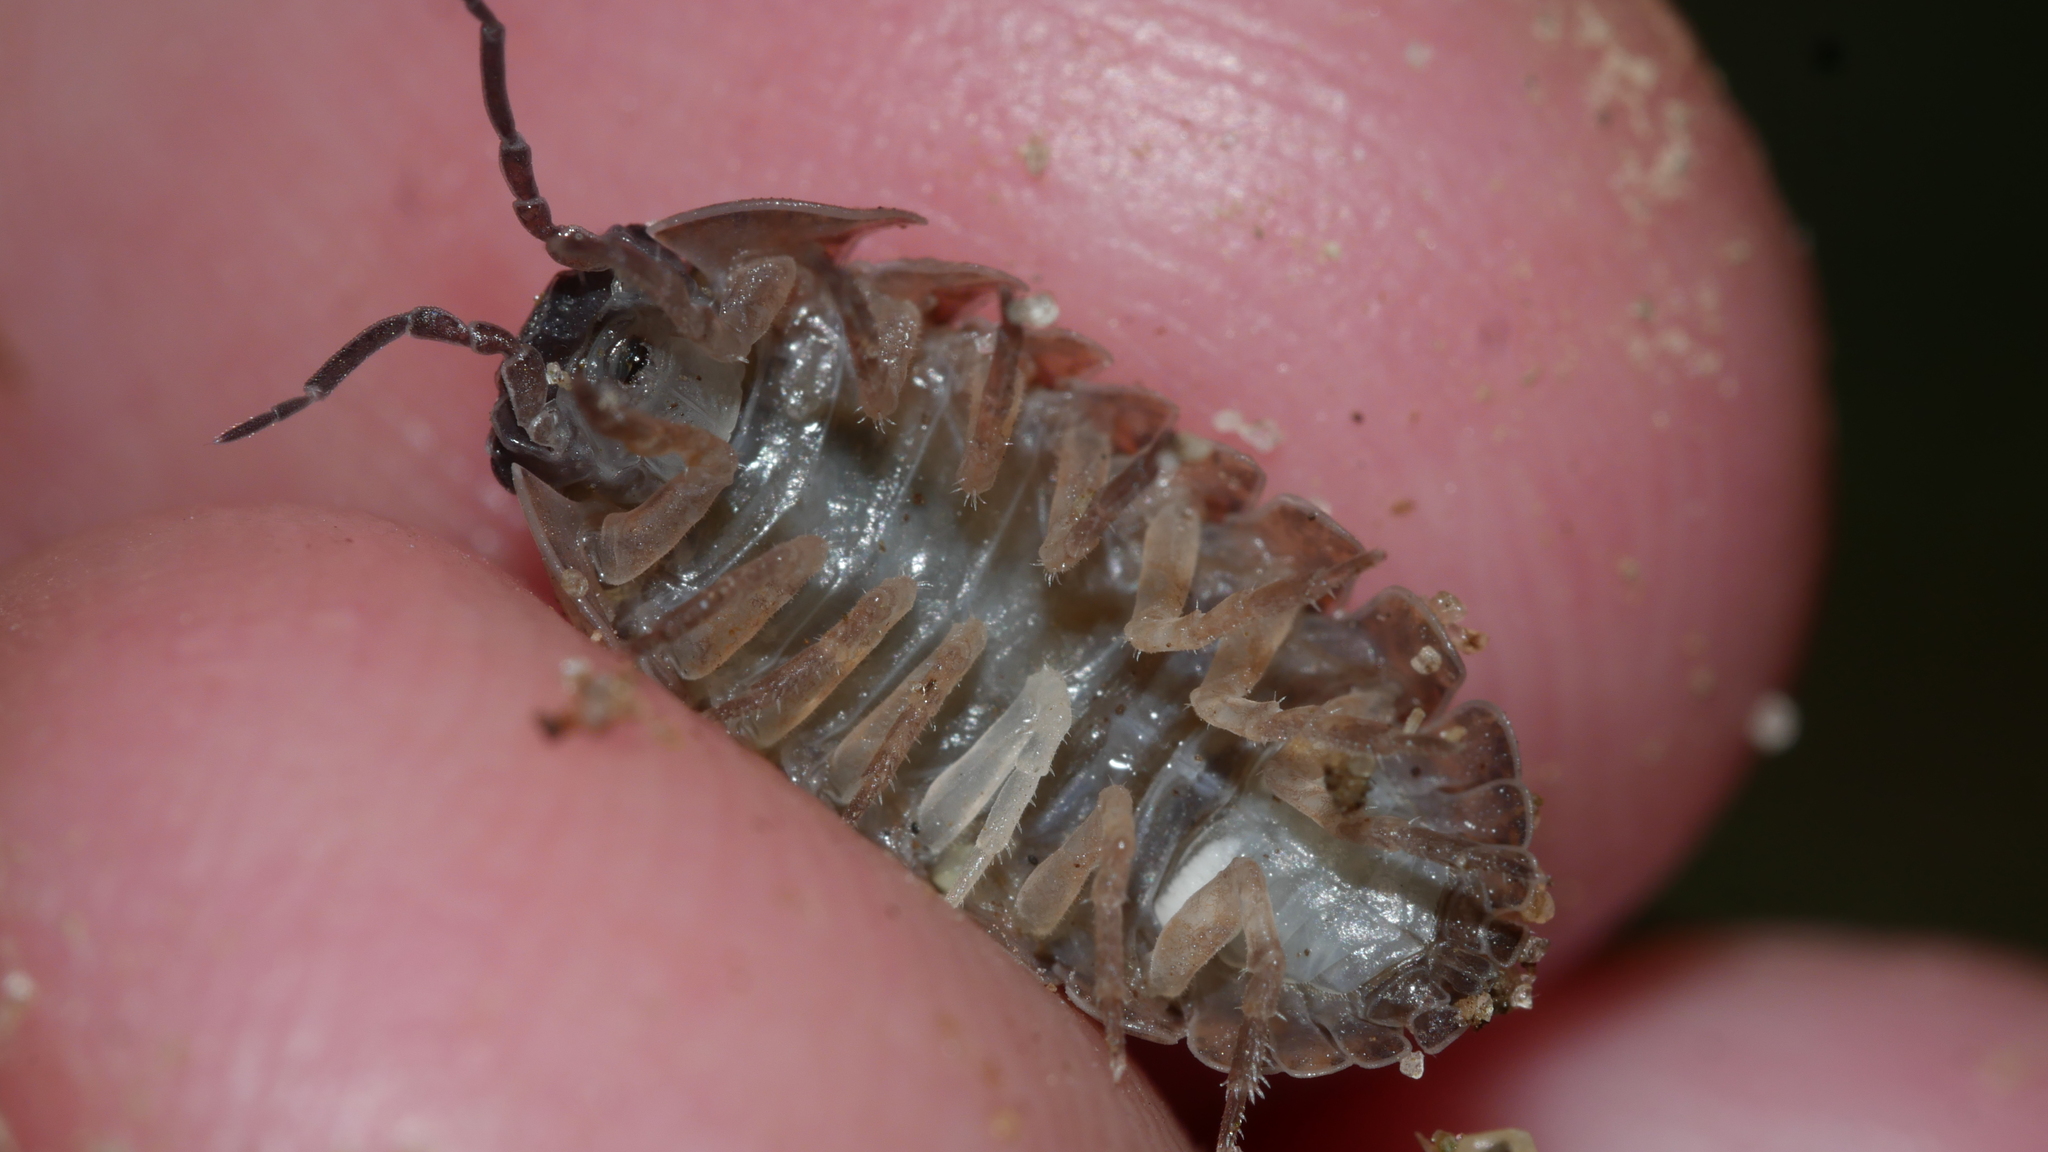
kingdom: Animalia
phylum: Arthropoda
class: Malacostraca
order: Isopoda
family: Armadillidiidae
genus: Armadillidium
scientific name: Armadillidium vulgare
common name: Common pill woodlouse
